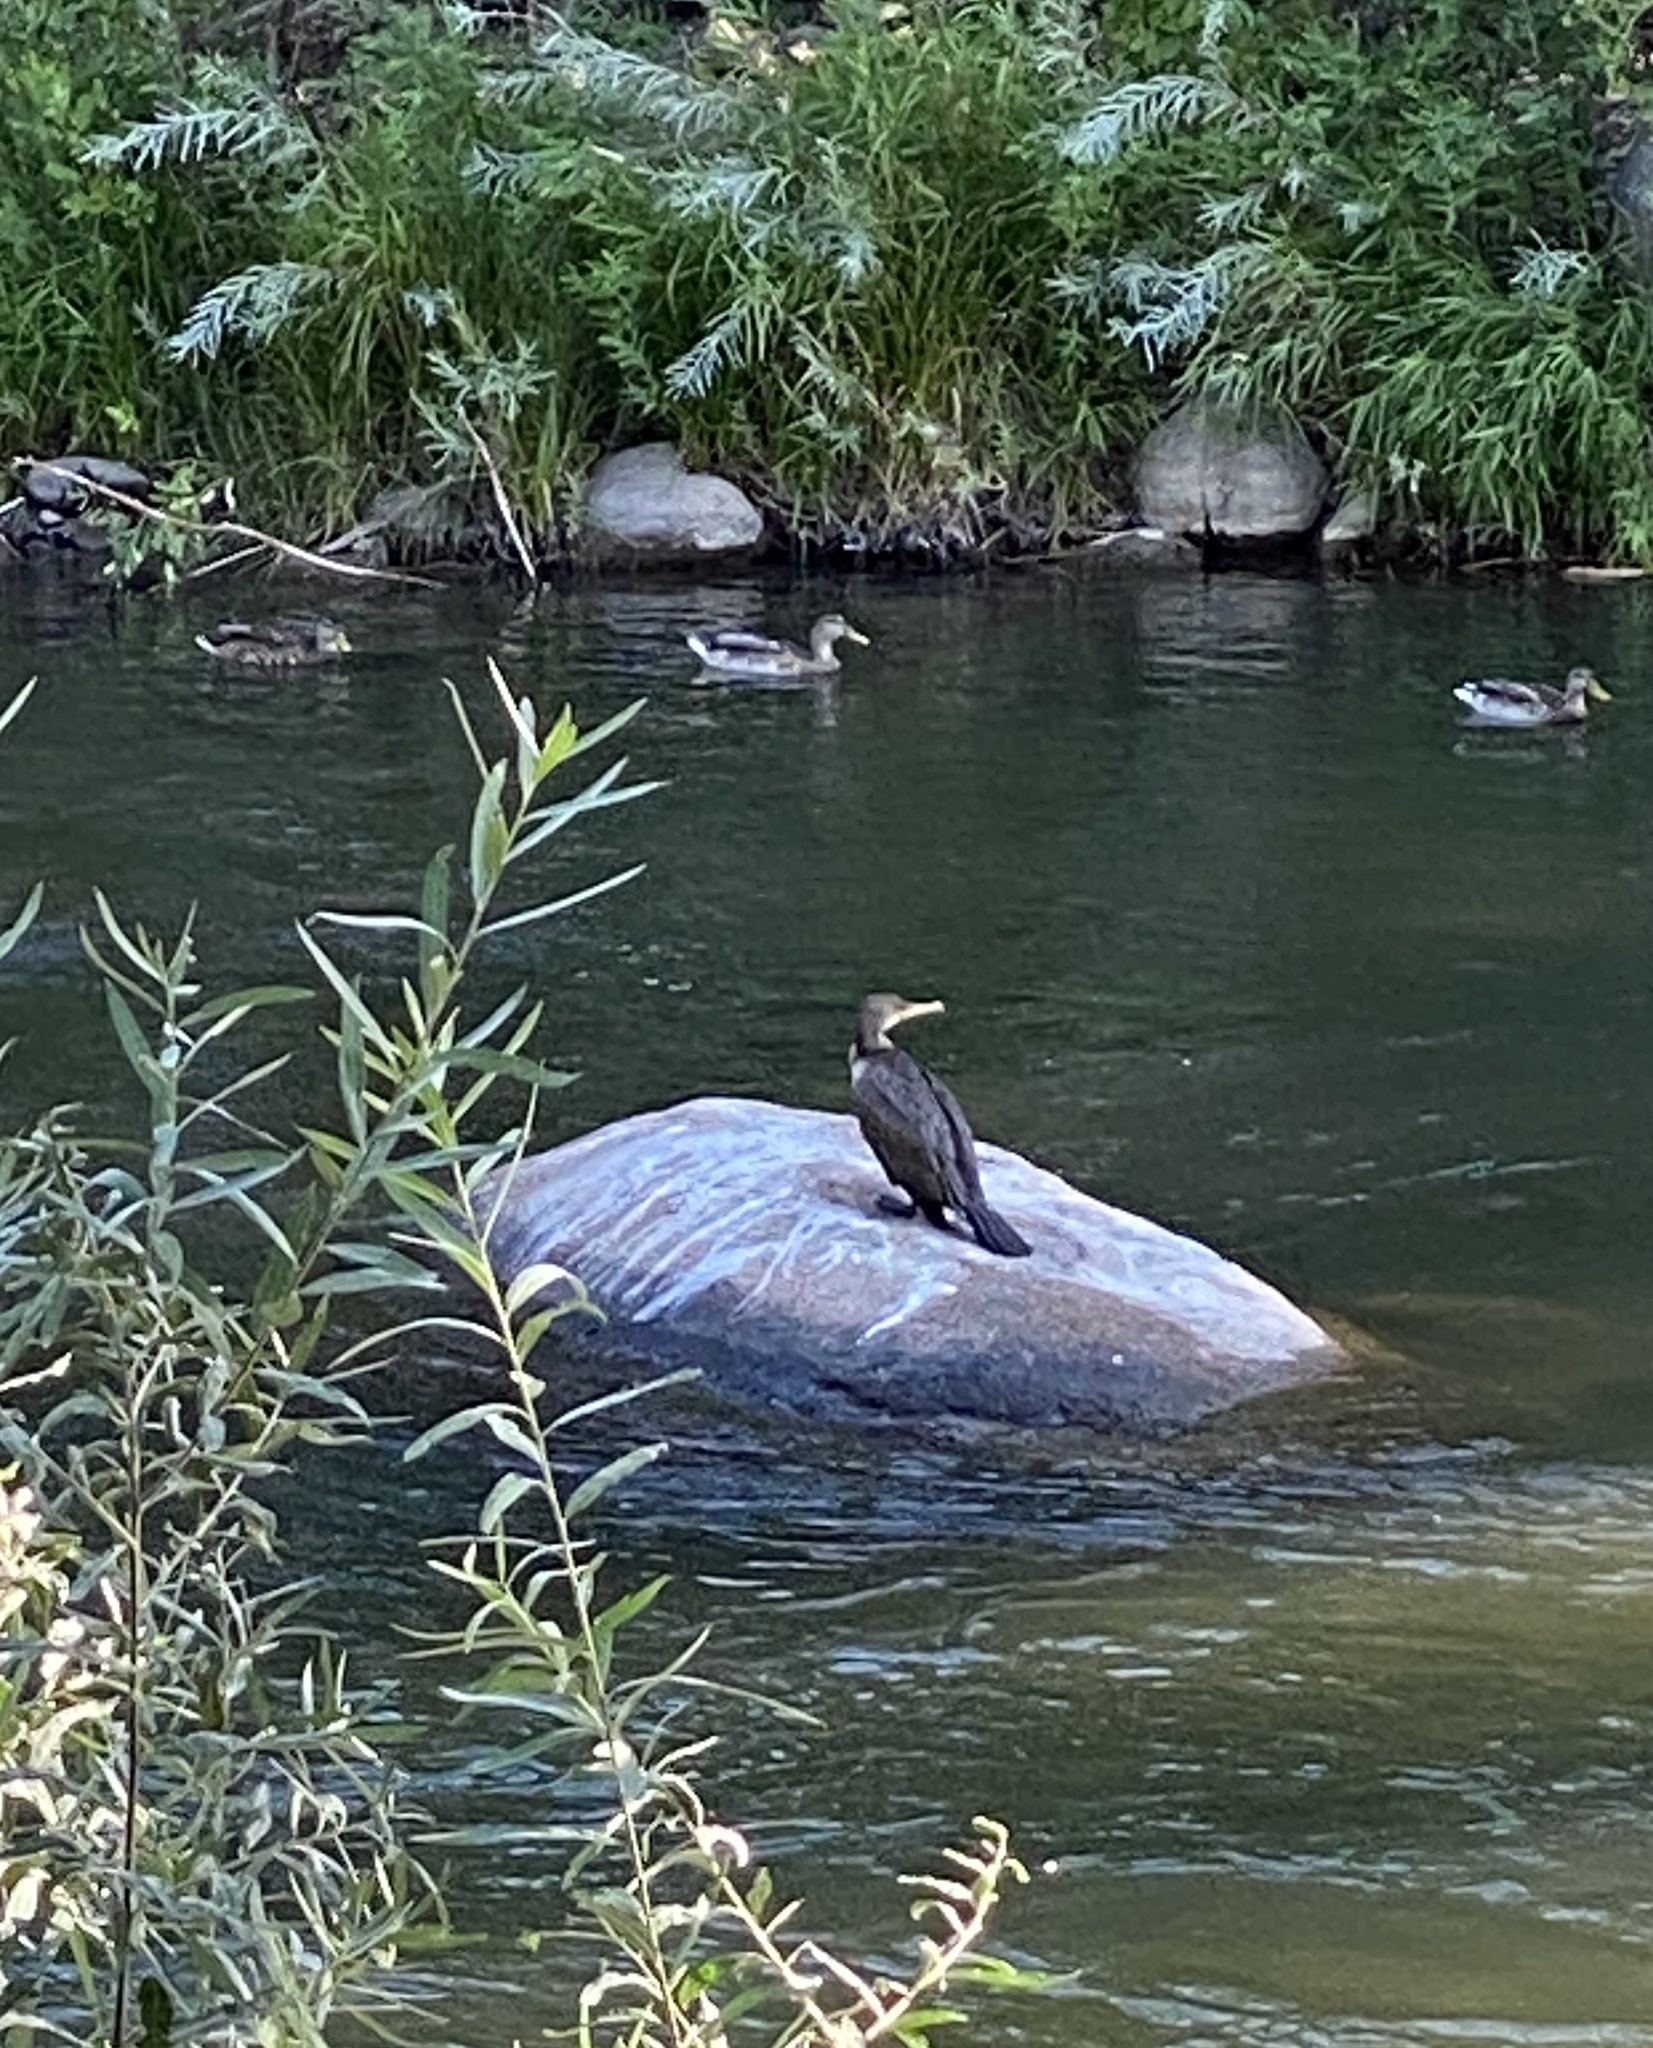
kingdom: Animalia
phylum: Chordata
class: Aves
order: Suliformes
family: Phalacrocoracidae
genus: Phalacrocorax
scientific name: Phalacrocorax auritus
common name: Double-crested cormorant
